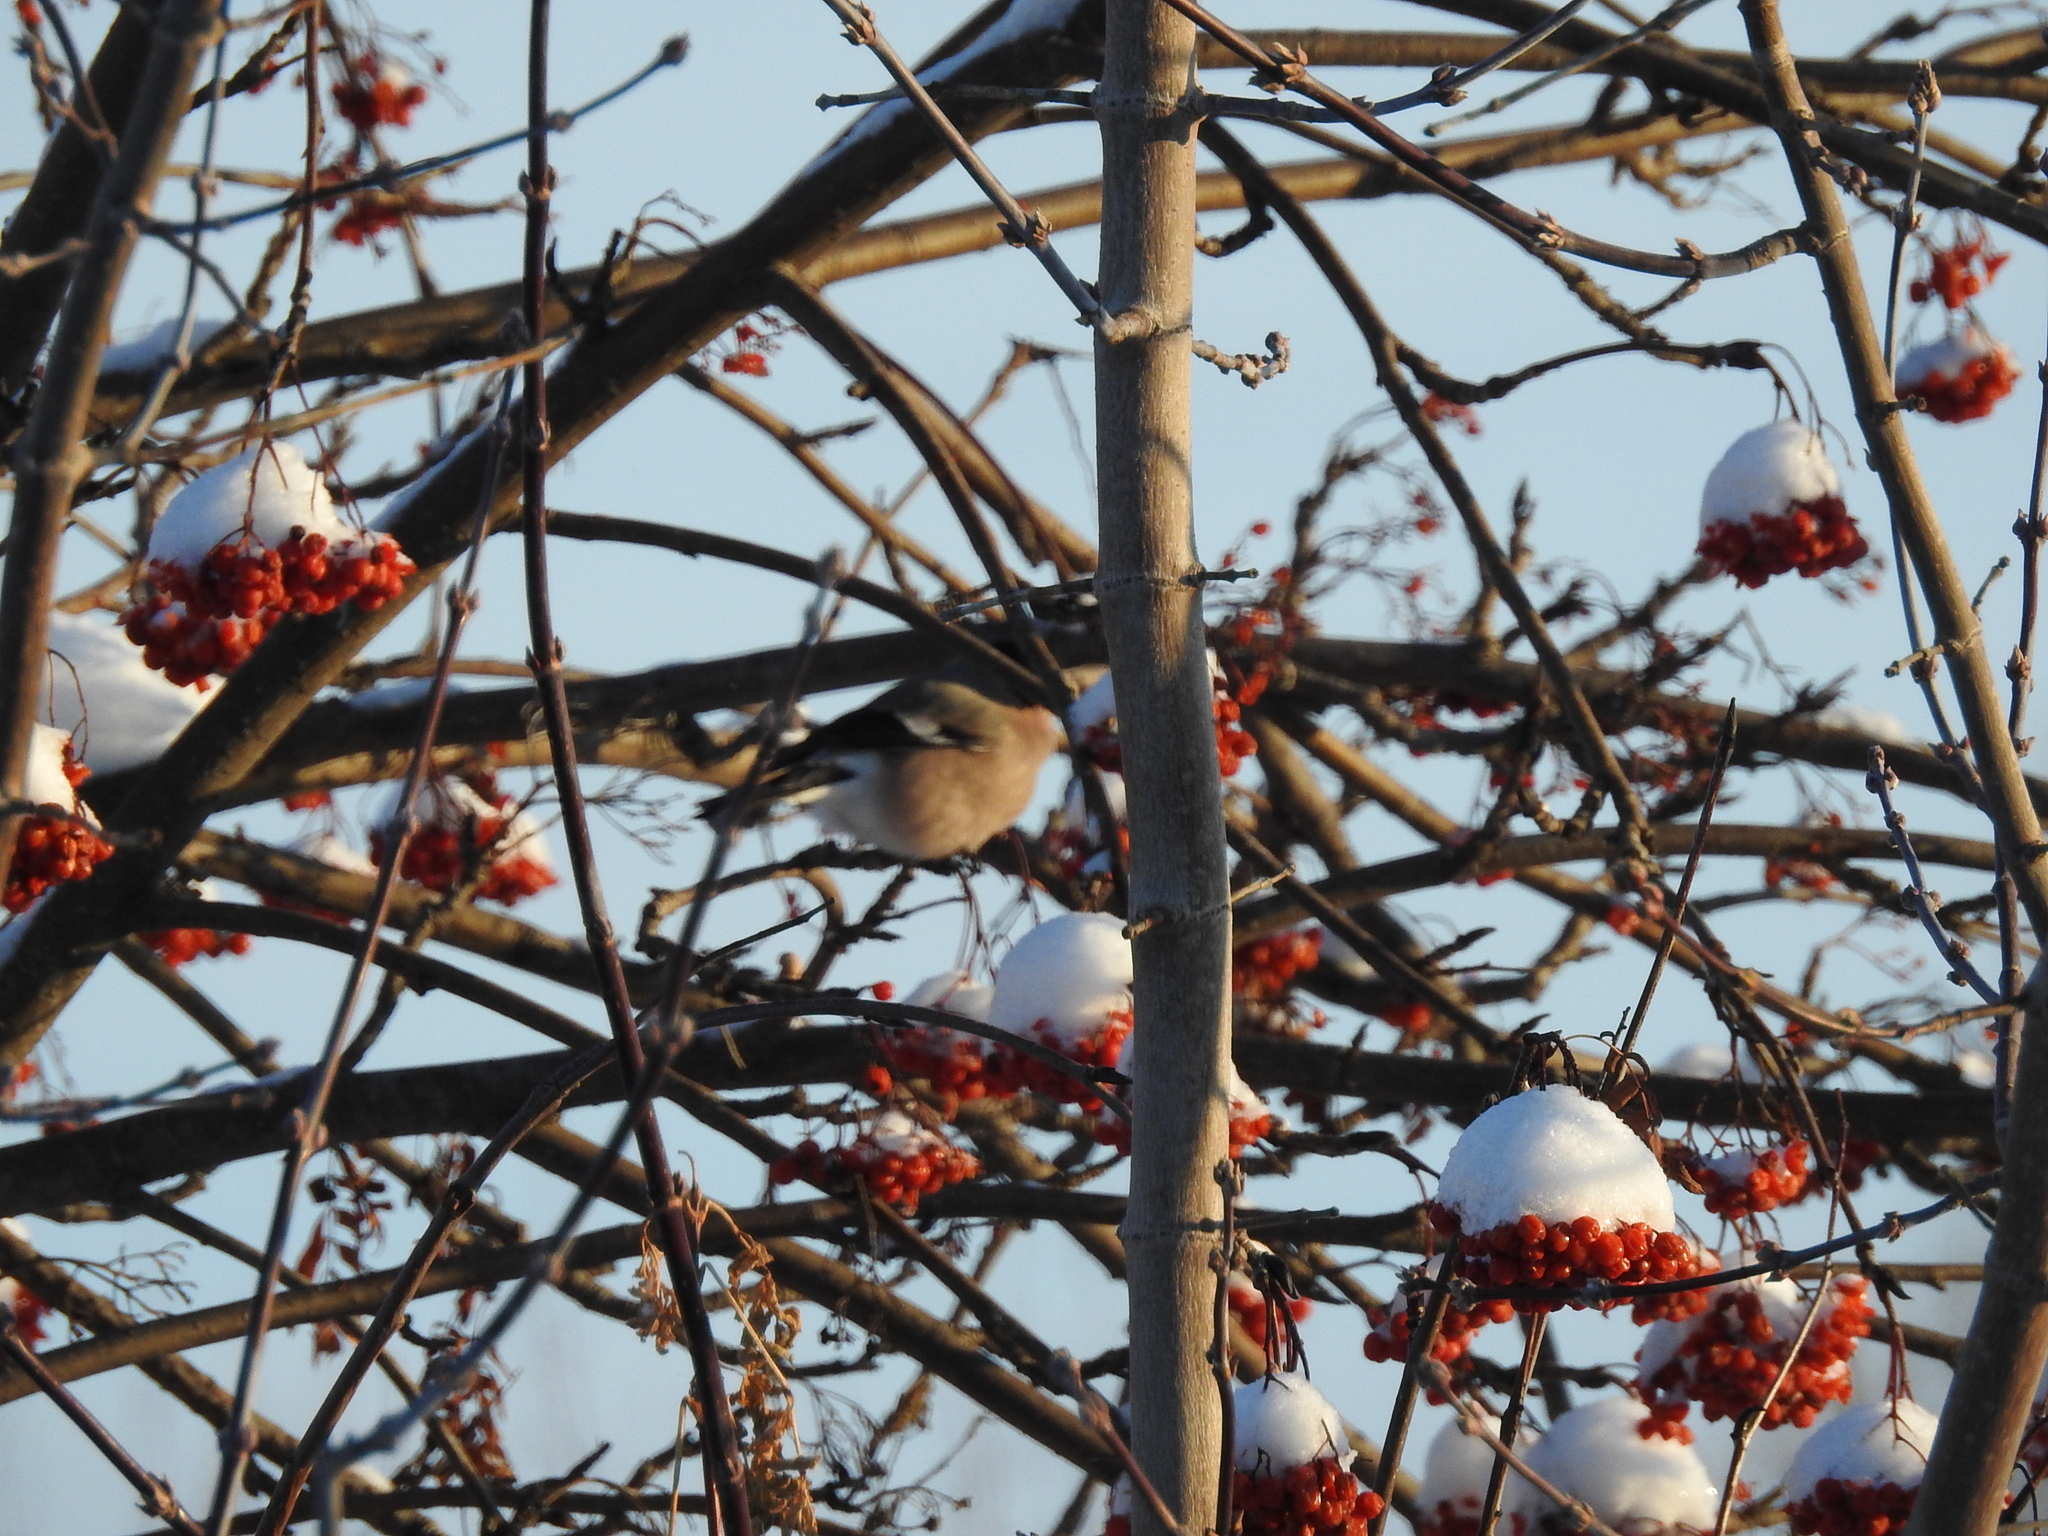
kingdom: Animalia
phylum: Chordata
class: Aves
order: Passeriformes
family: Fringillidae
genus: Pyrrhula
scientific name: Pyrrhula pyrrhula
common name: Eurasian bullfinch
